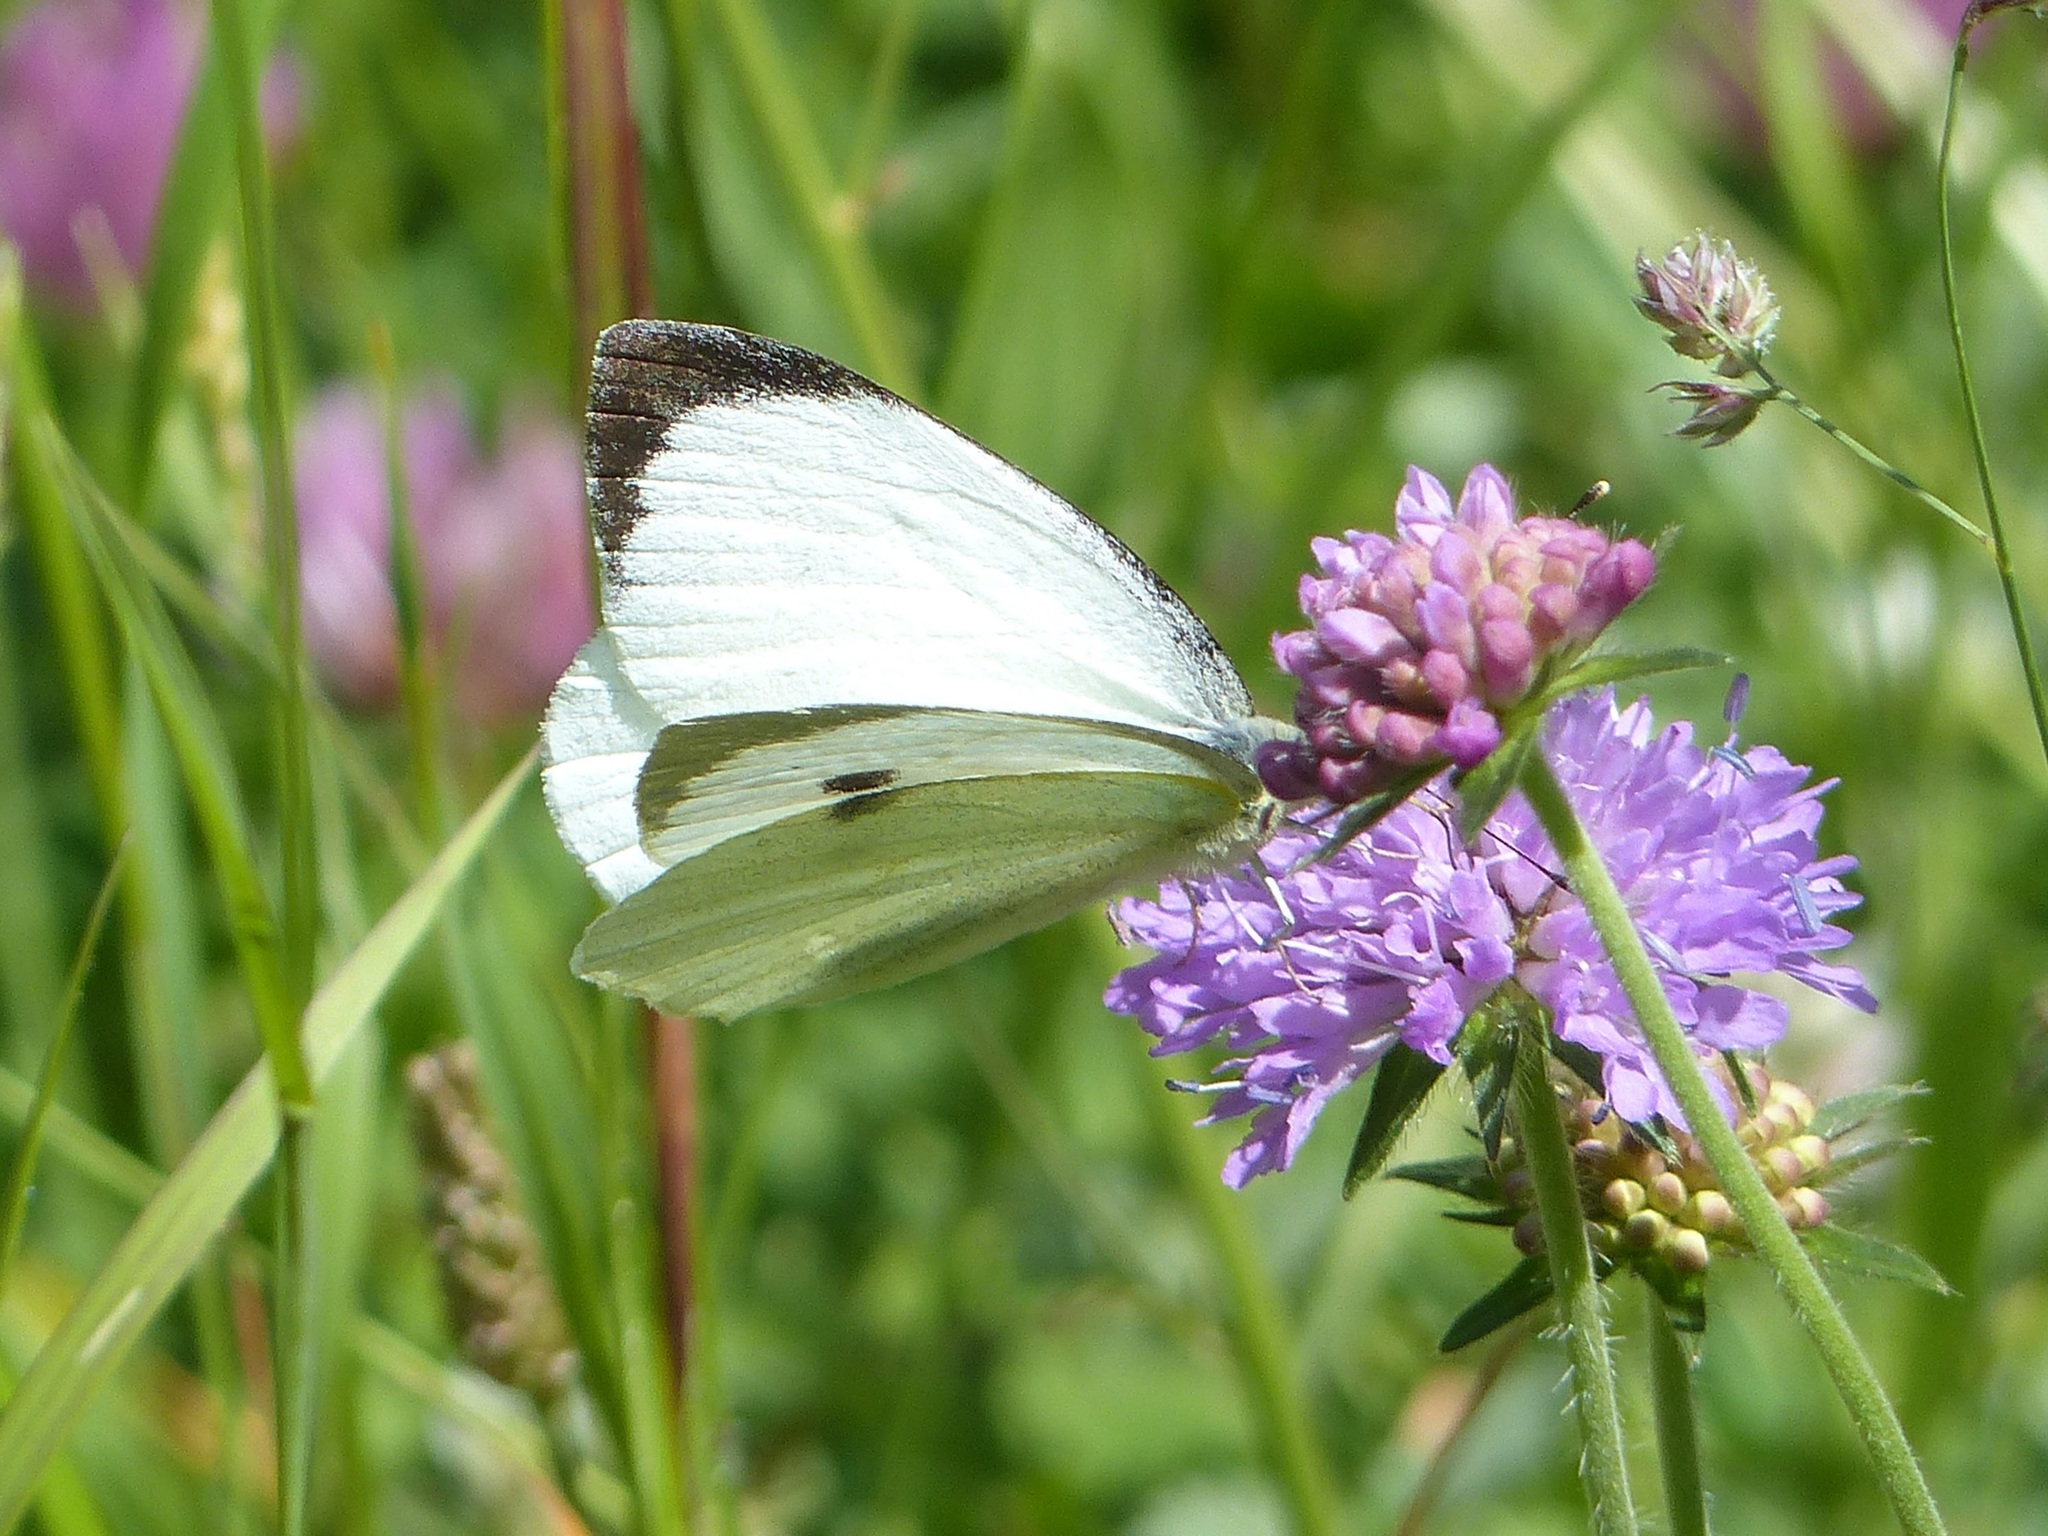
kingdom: Animalia
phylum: Arthropoda
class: Insecta
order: Lepidoptera
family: Pieridae
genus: Pieris
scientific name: Pieris brassicae
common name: Large white
